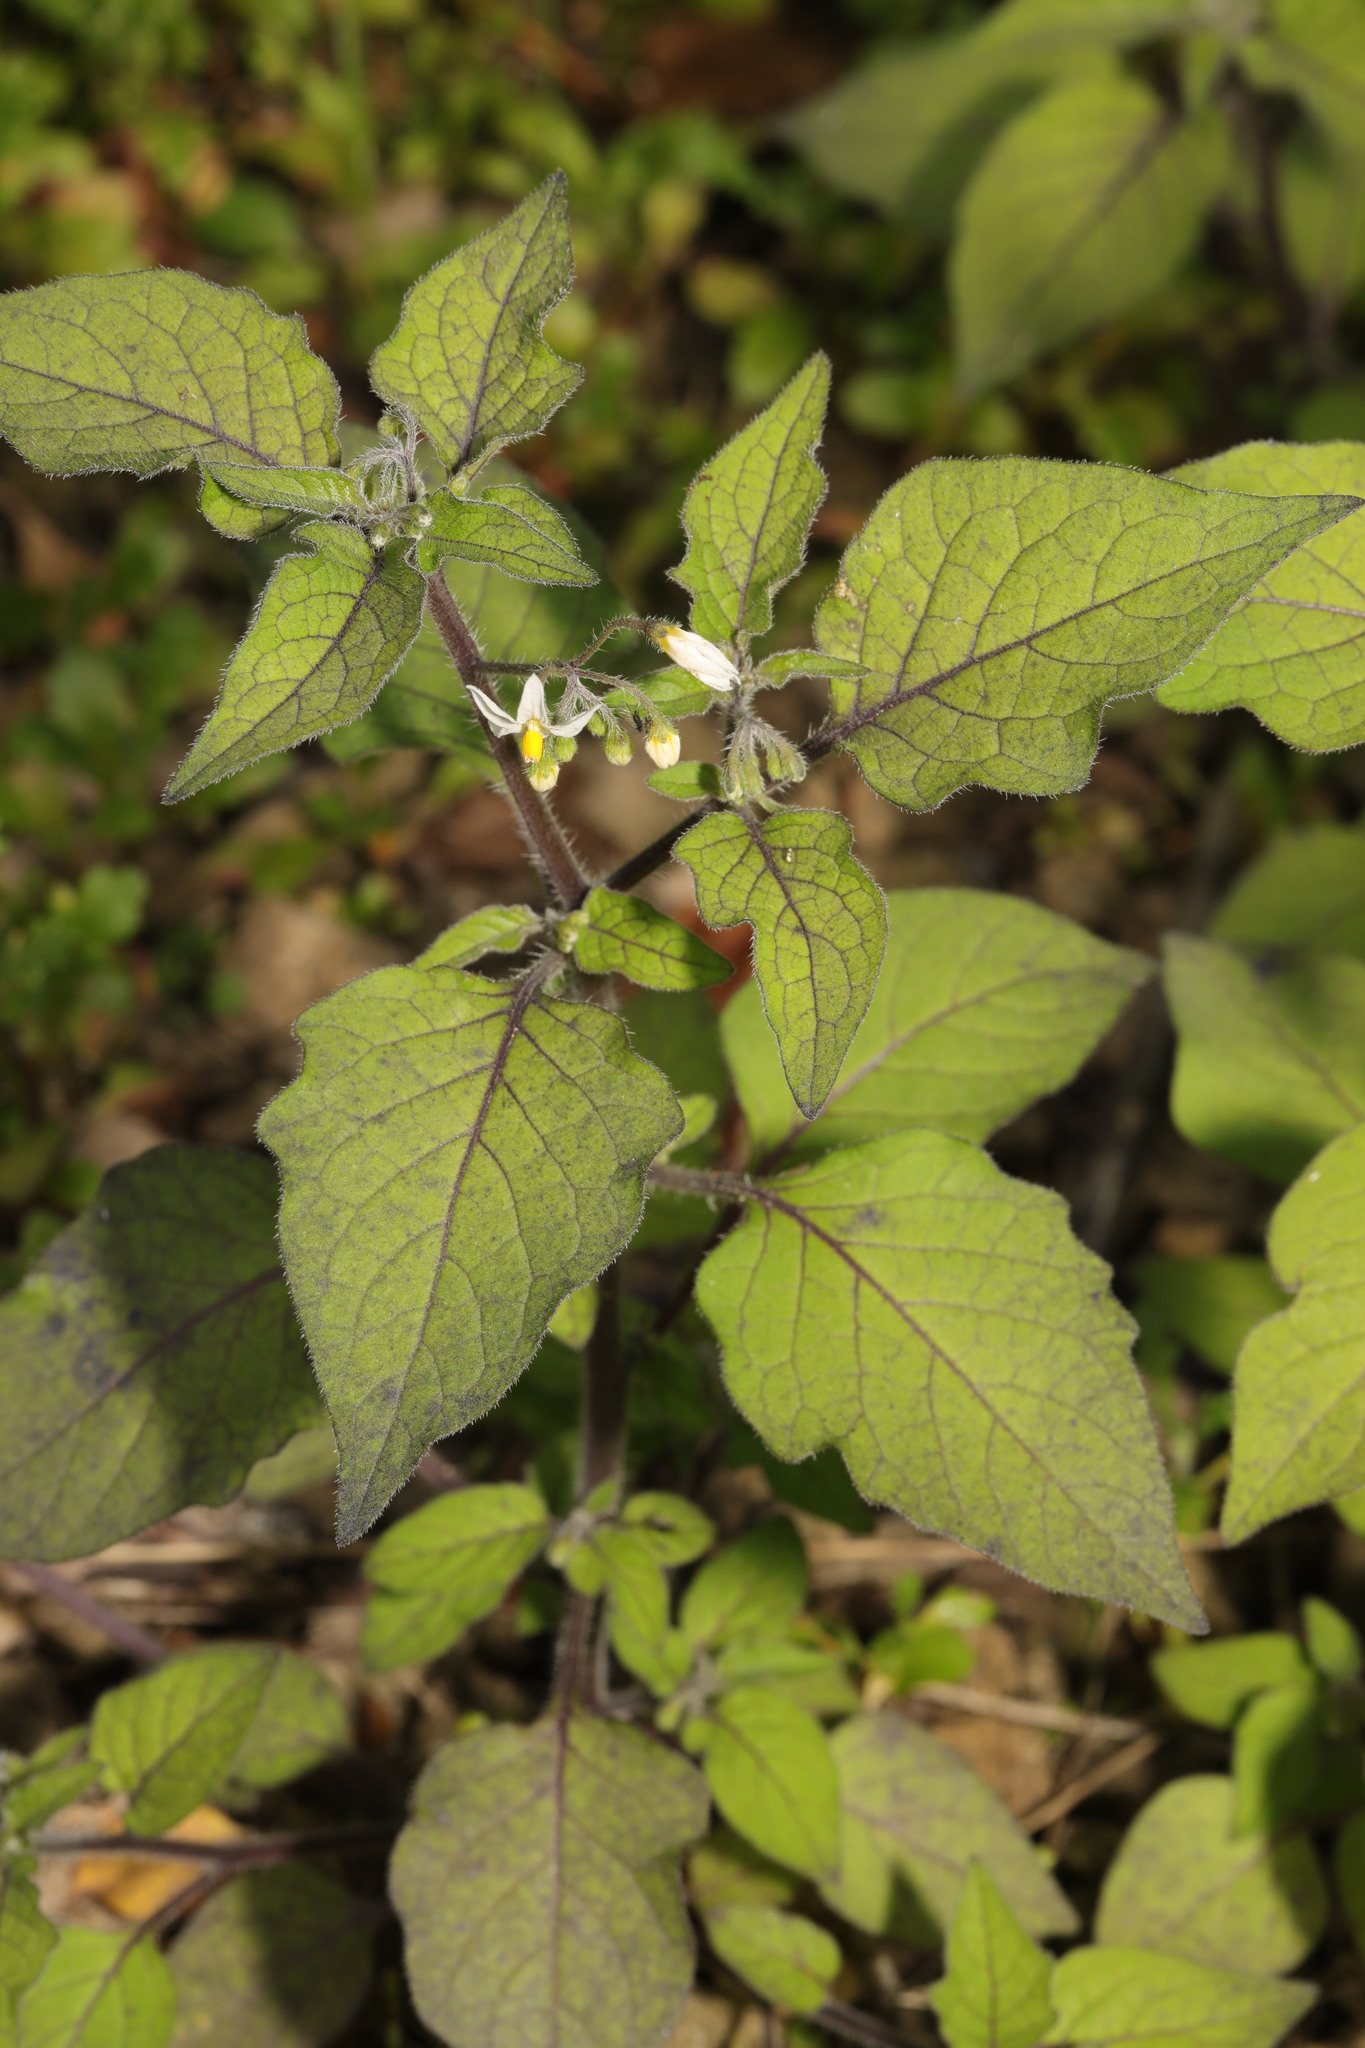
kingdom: Plantae
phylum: Tracheophyta
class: Magnoliopsida
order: Solanales
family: Solanaceae
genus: Solanum
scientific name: Solanum nigrum
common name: Black nightshade
